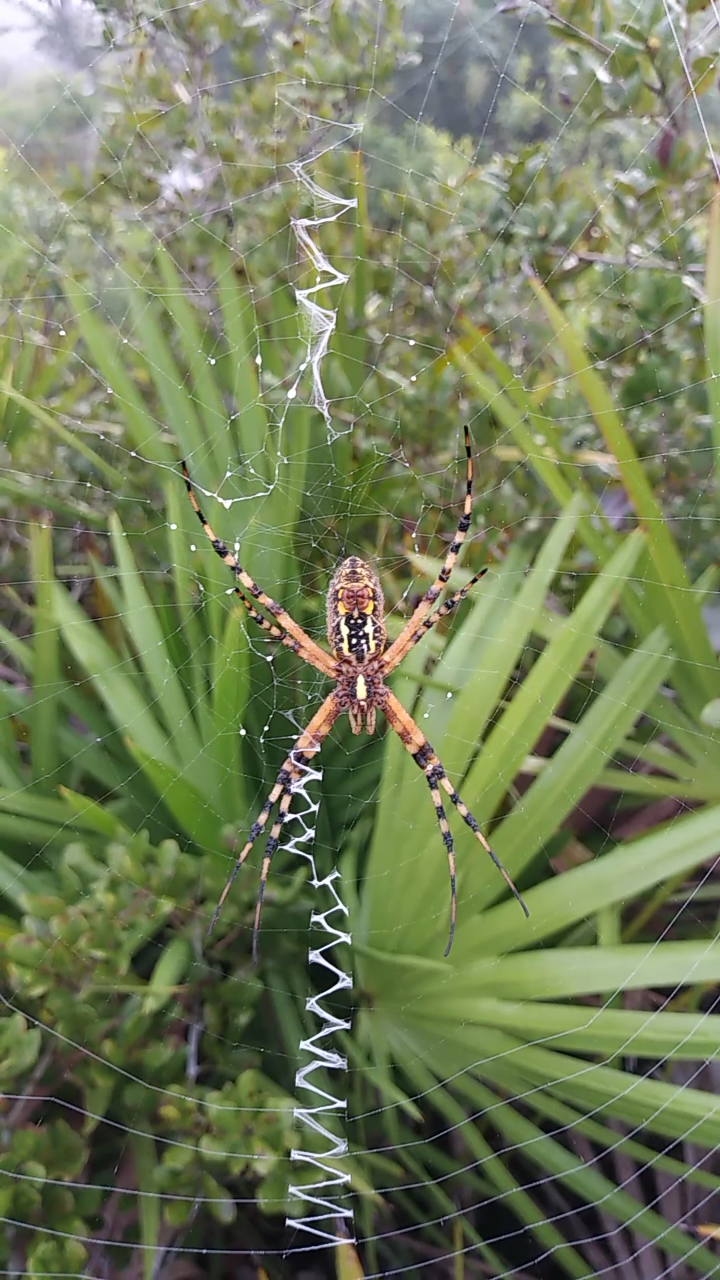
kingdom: Animalia
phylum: Arthropoda
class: Arachnida
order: Araneae
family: Araneidae
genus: Argiope
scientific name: Argiope aurantia
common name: Orb weavers
